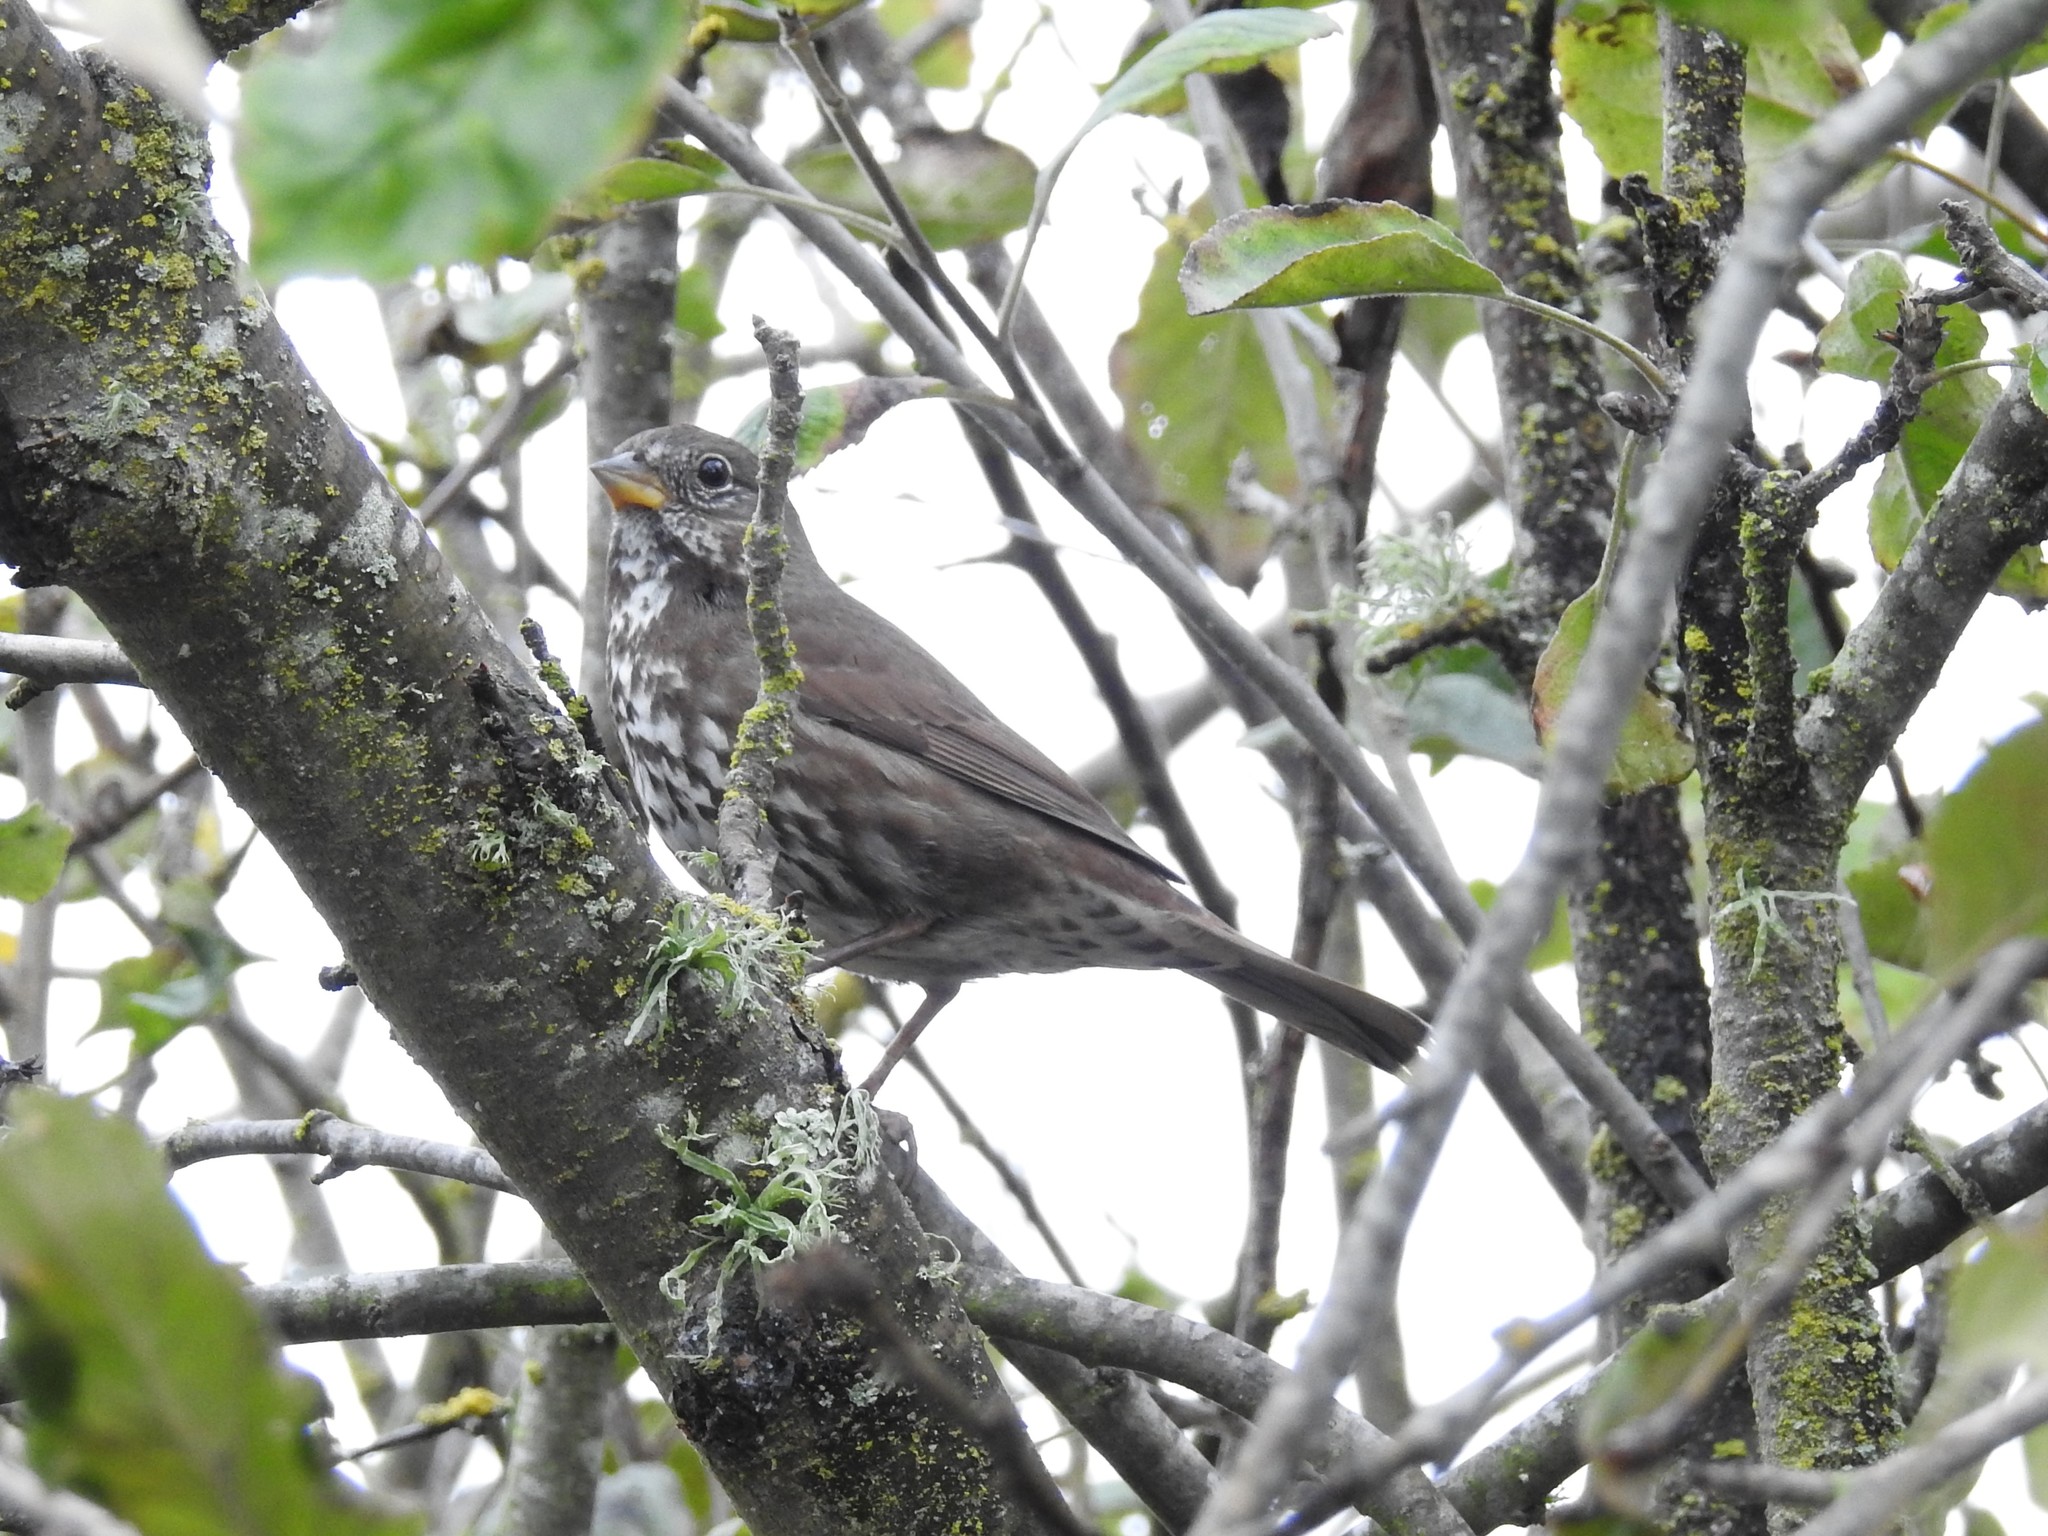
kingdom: Animalia
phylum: Chordata
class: Aves
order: Passeriformes
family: Passerellidae
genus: Passerella
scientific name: Passerella iliaca
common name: Fox sparrow
